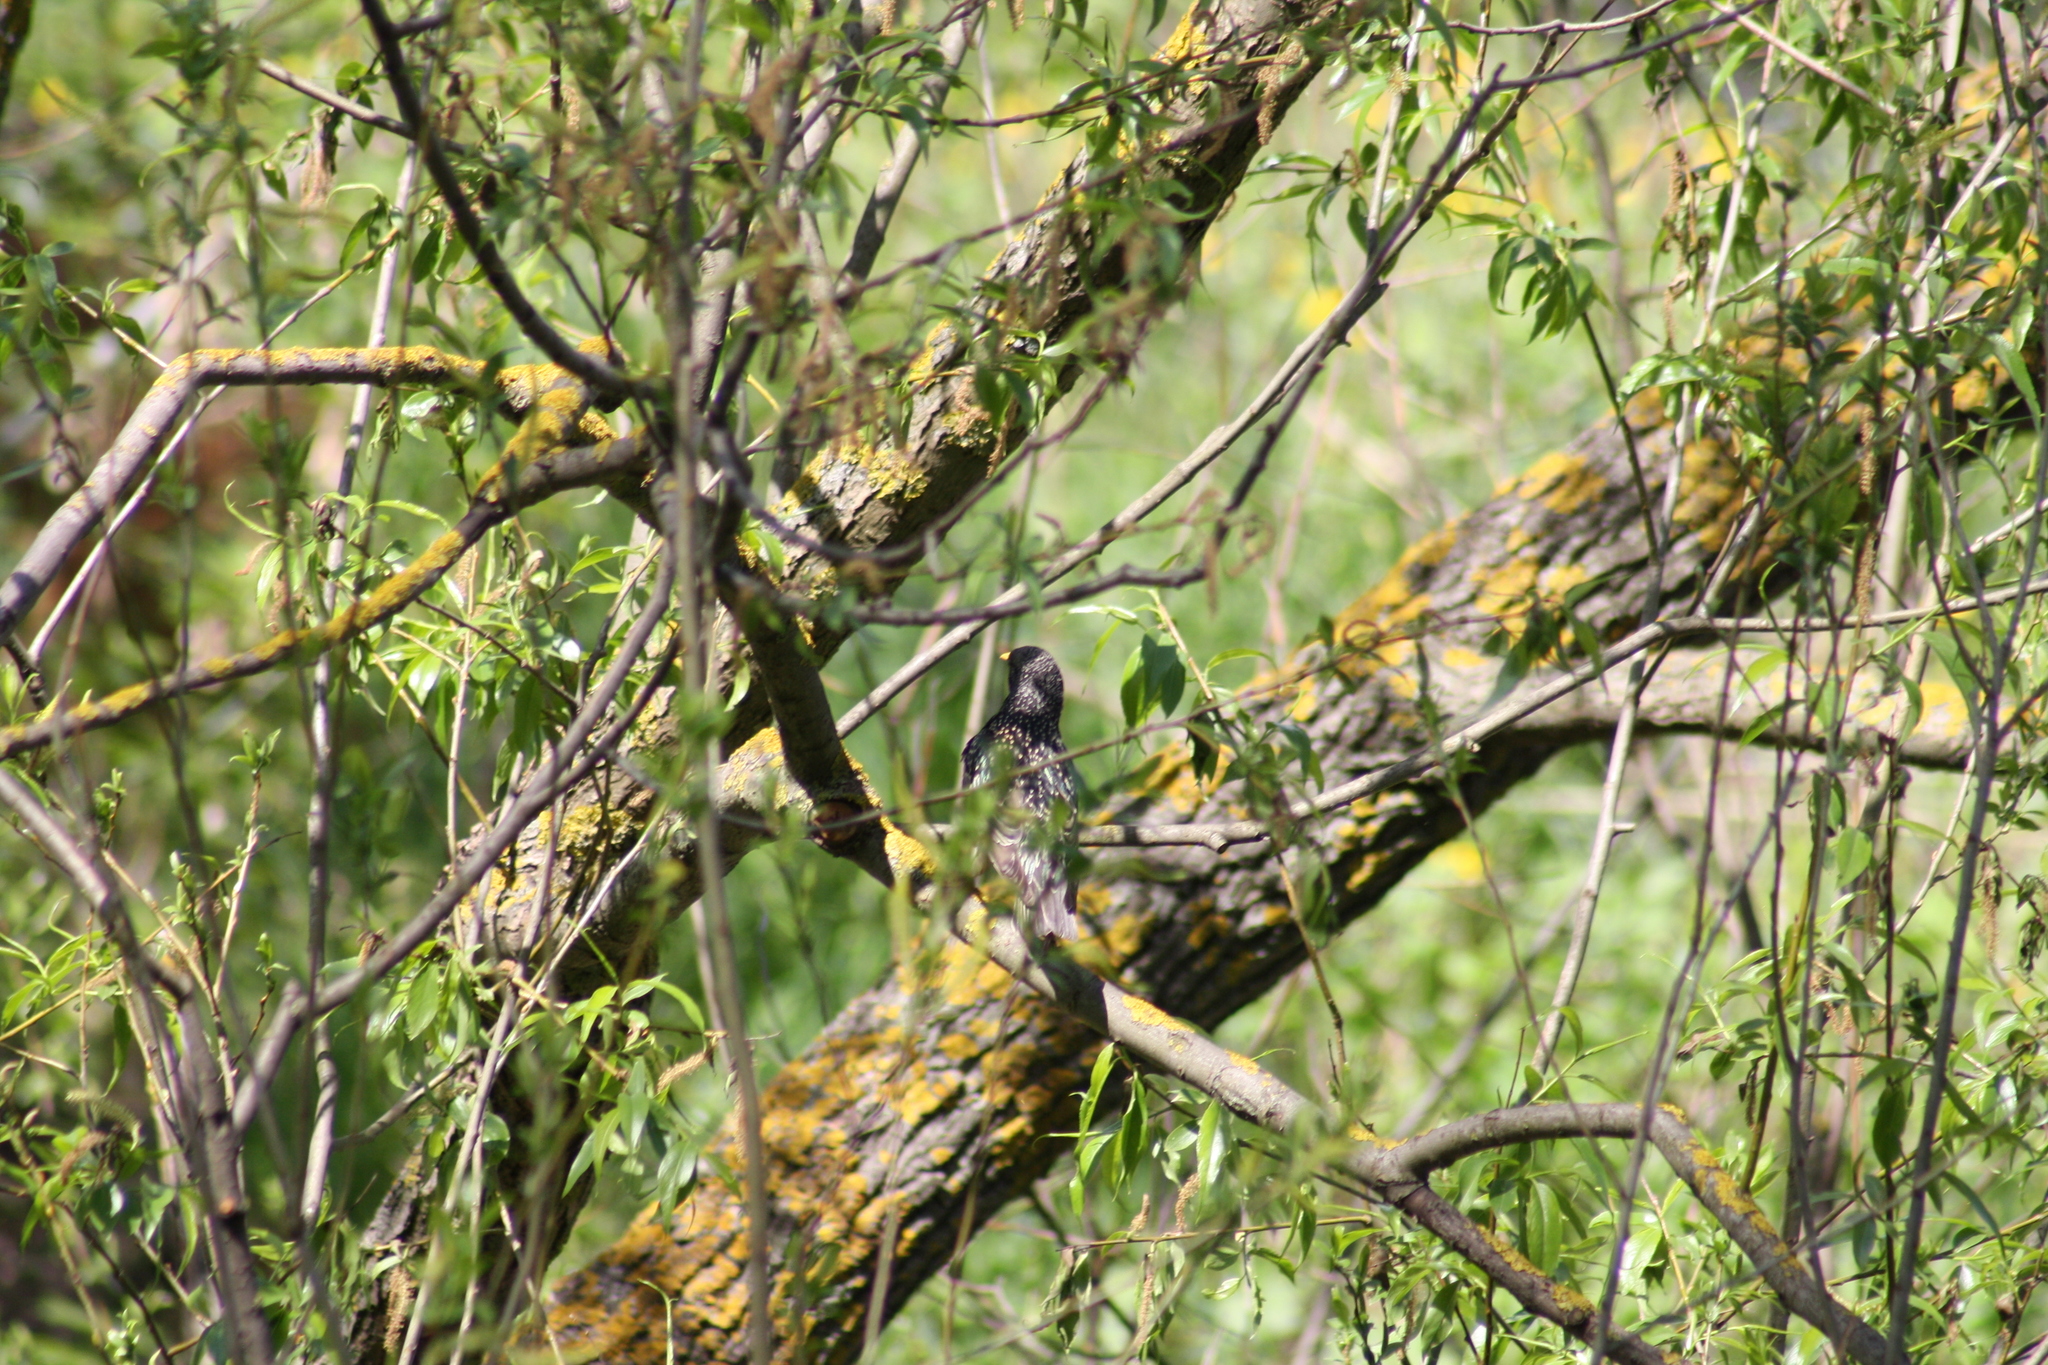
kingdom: Animalia
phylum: Chordata
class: Aves
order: Passeriformes
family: Sturnidae
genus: Sturnus
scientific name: Sturnus vulgaris
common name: Common starling
